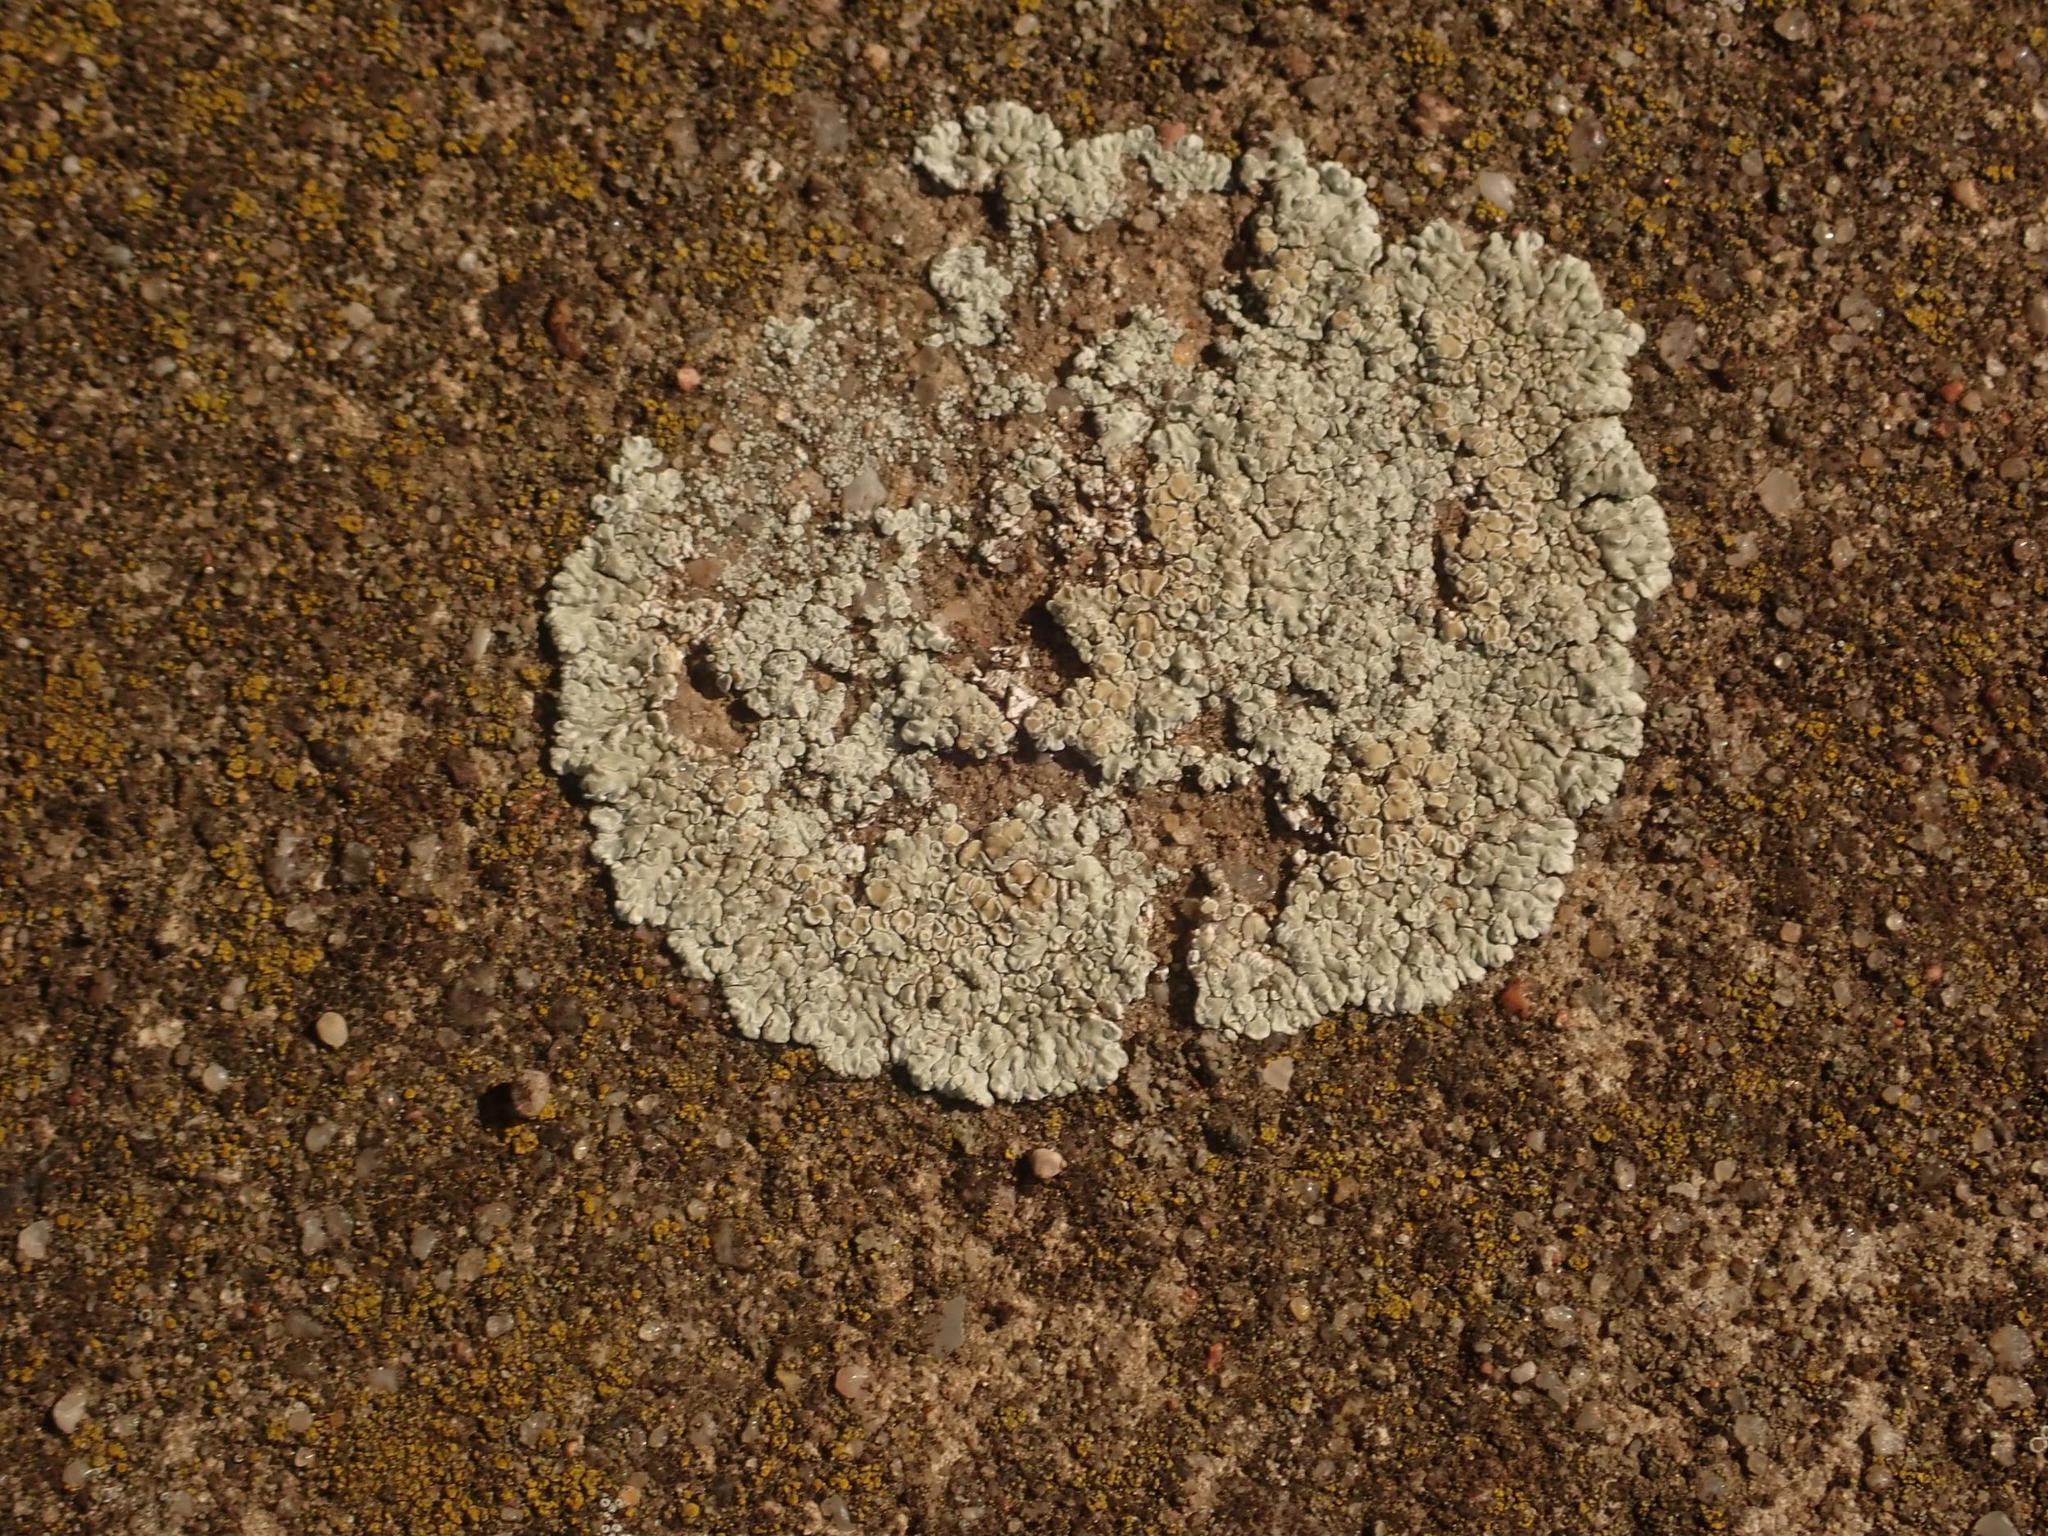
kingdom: Fungi
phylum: Ascomycota
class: Lecanoromycetes
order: Lecanorales
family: Lecanoraceae
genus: Protoparmeliopsis
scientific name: Protoparmeliopsis muralis
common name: Stonewall rim lichen
